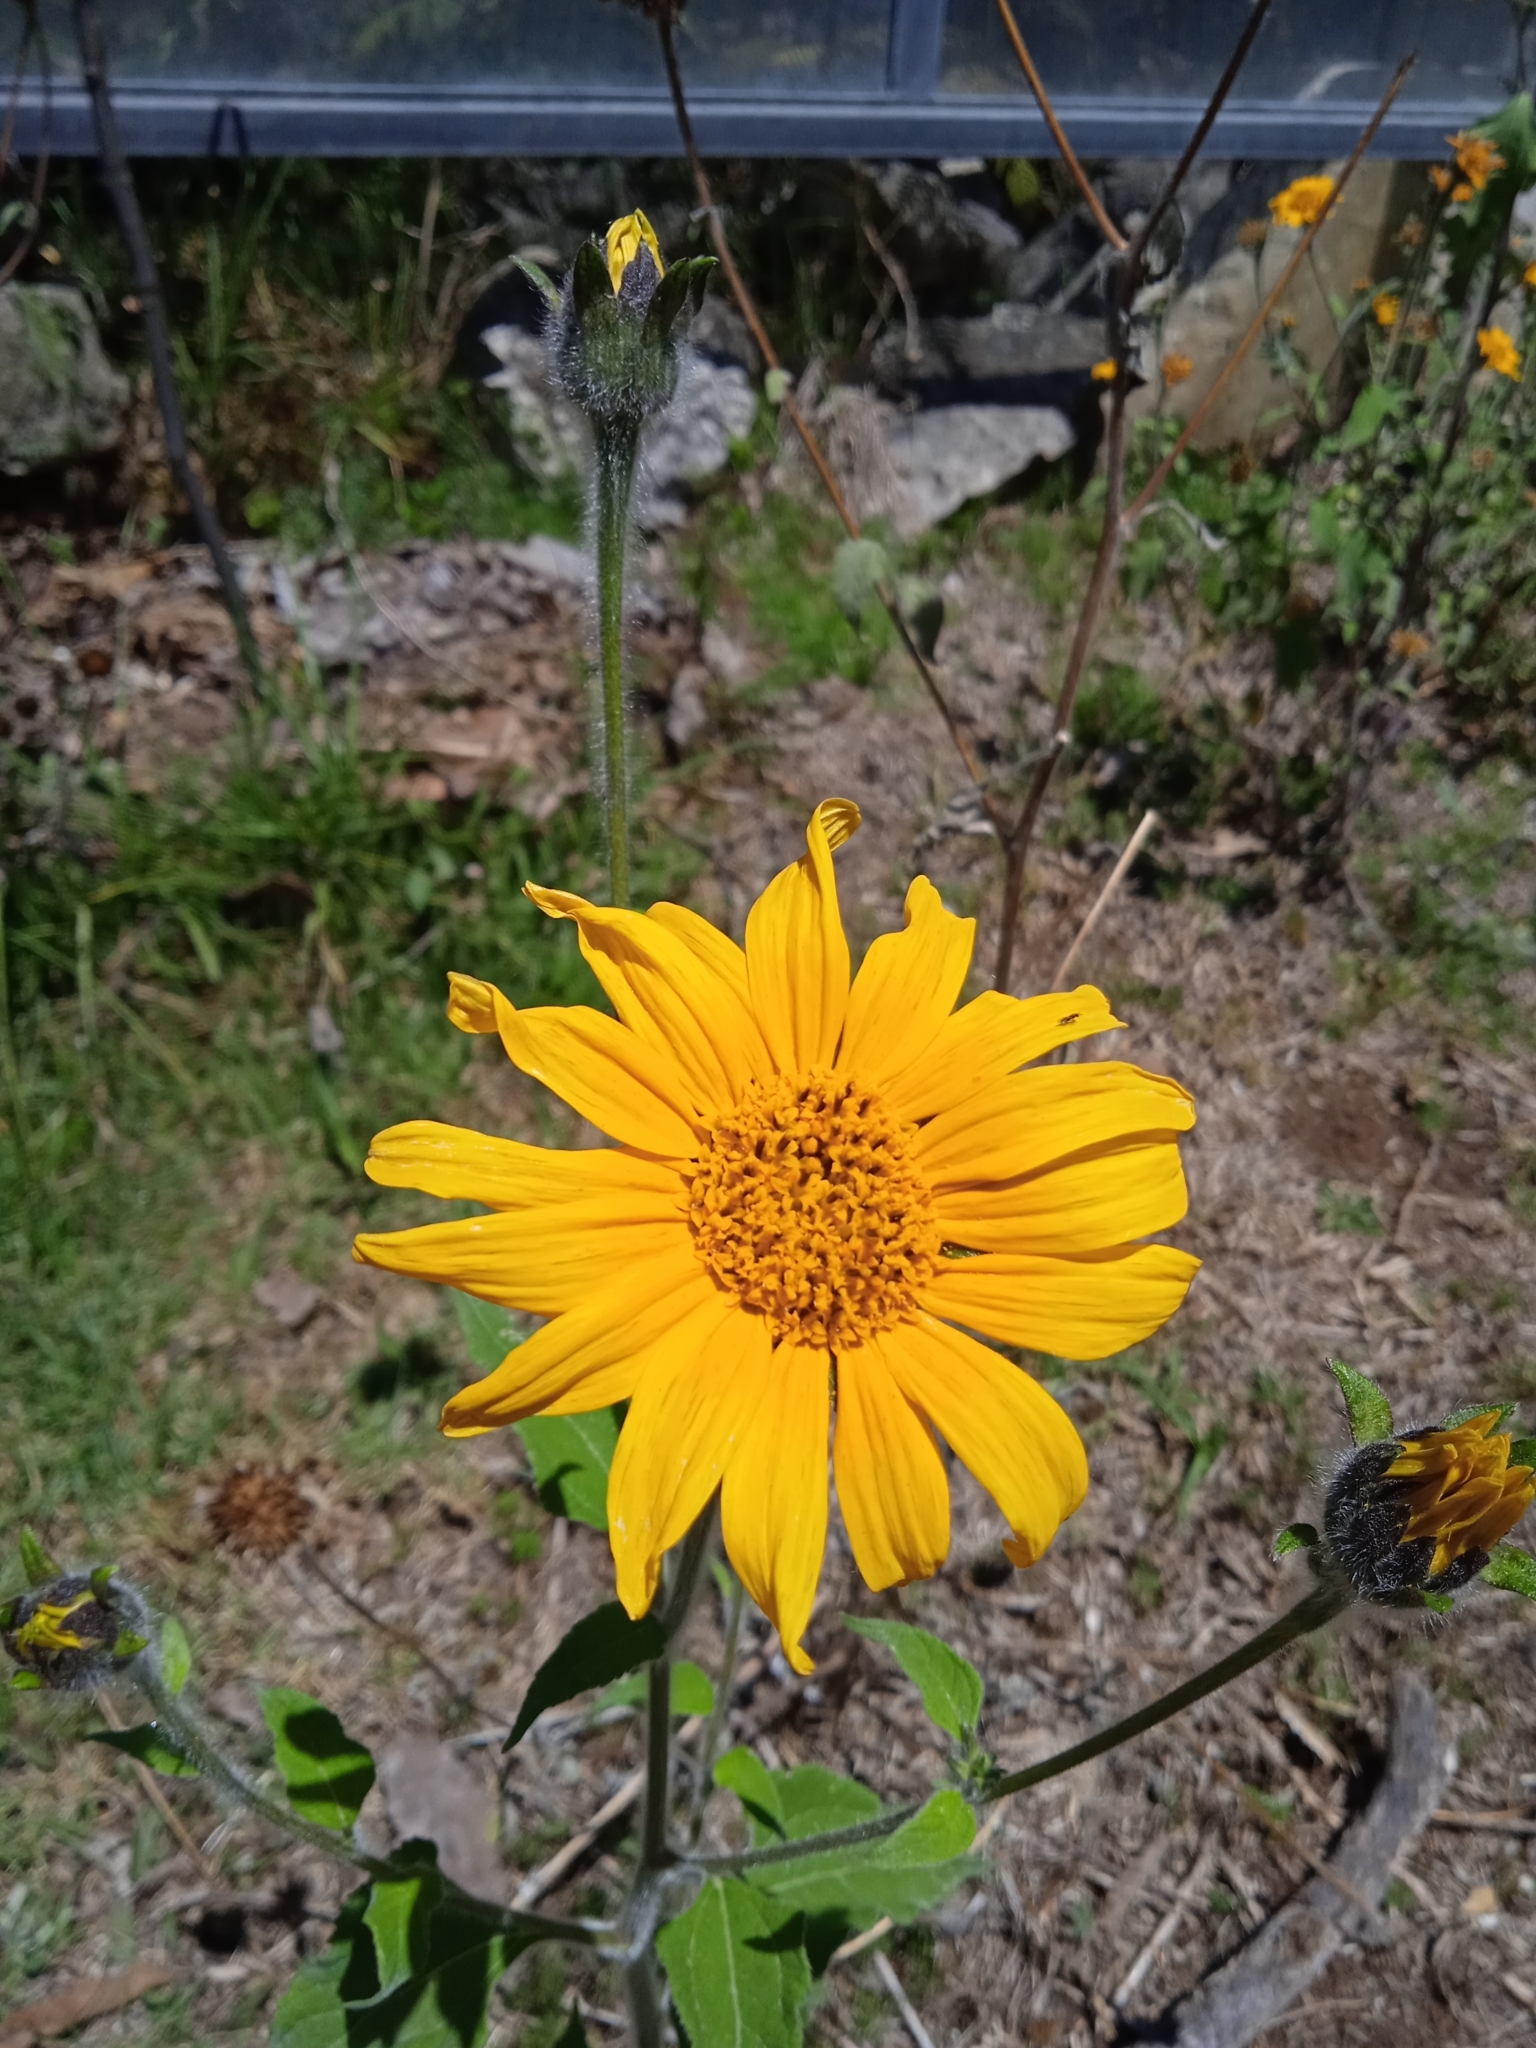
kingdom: Plantae
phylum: Tracheophyta
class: Magnoliopsida
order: Asterales
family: Asteraceae
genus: Tithonia
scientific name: Tithonia tubaeformis
